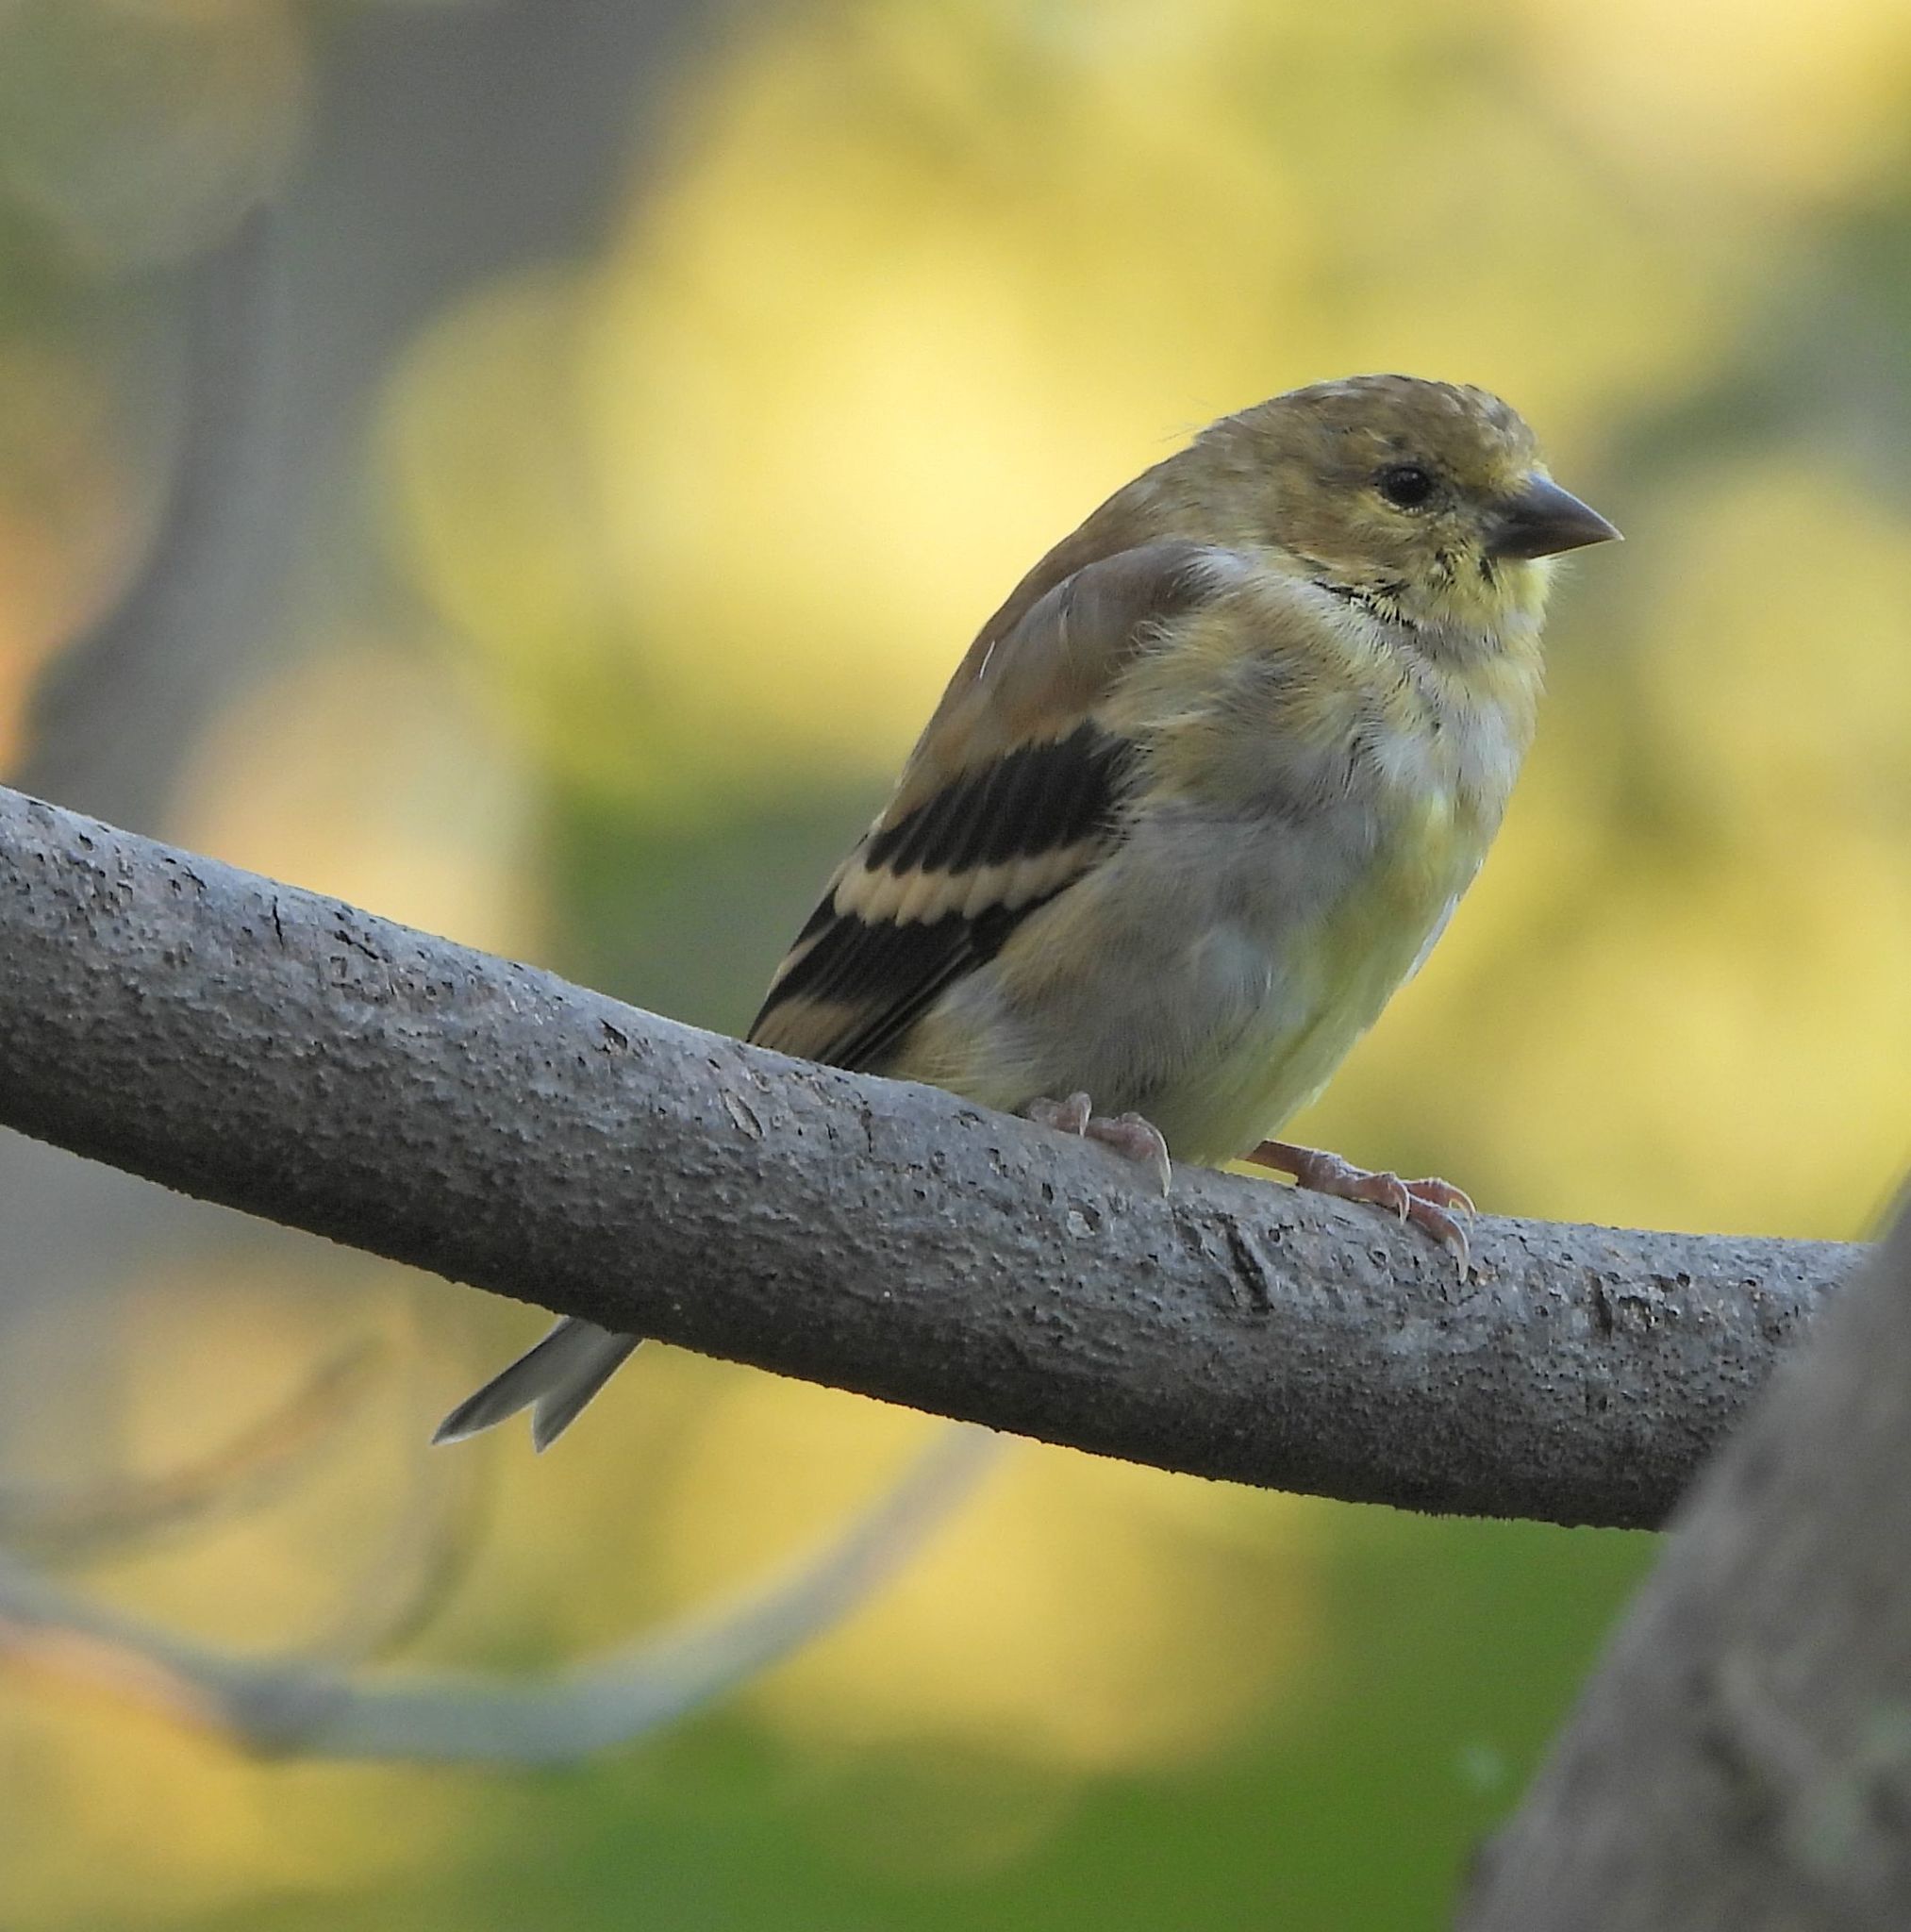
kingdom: Animalia
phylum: Chordata
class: Aves
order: Passeriformes
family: Fringillidae
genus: Spinus
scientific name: Spinus tristis
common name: American goldfinch
